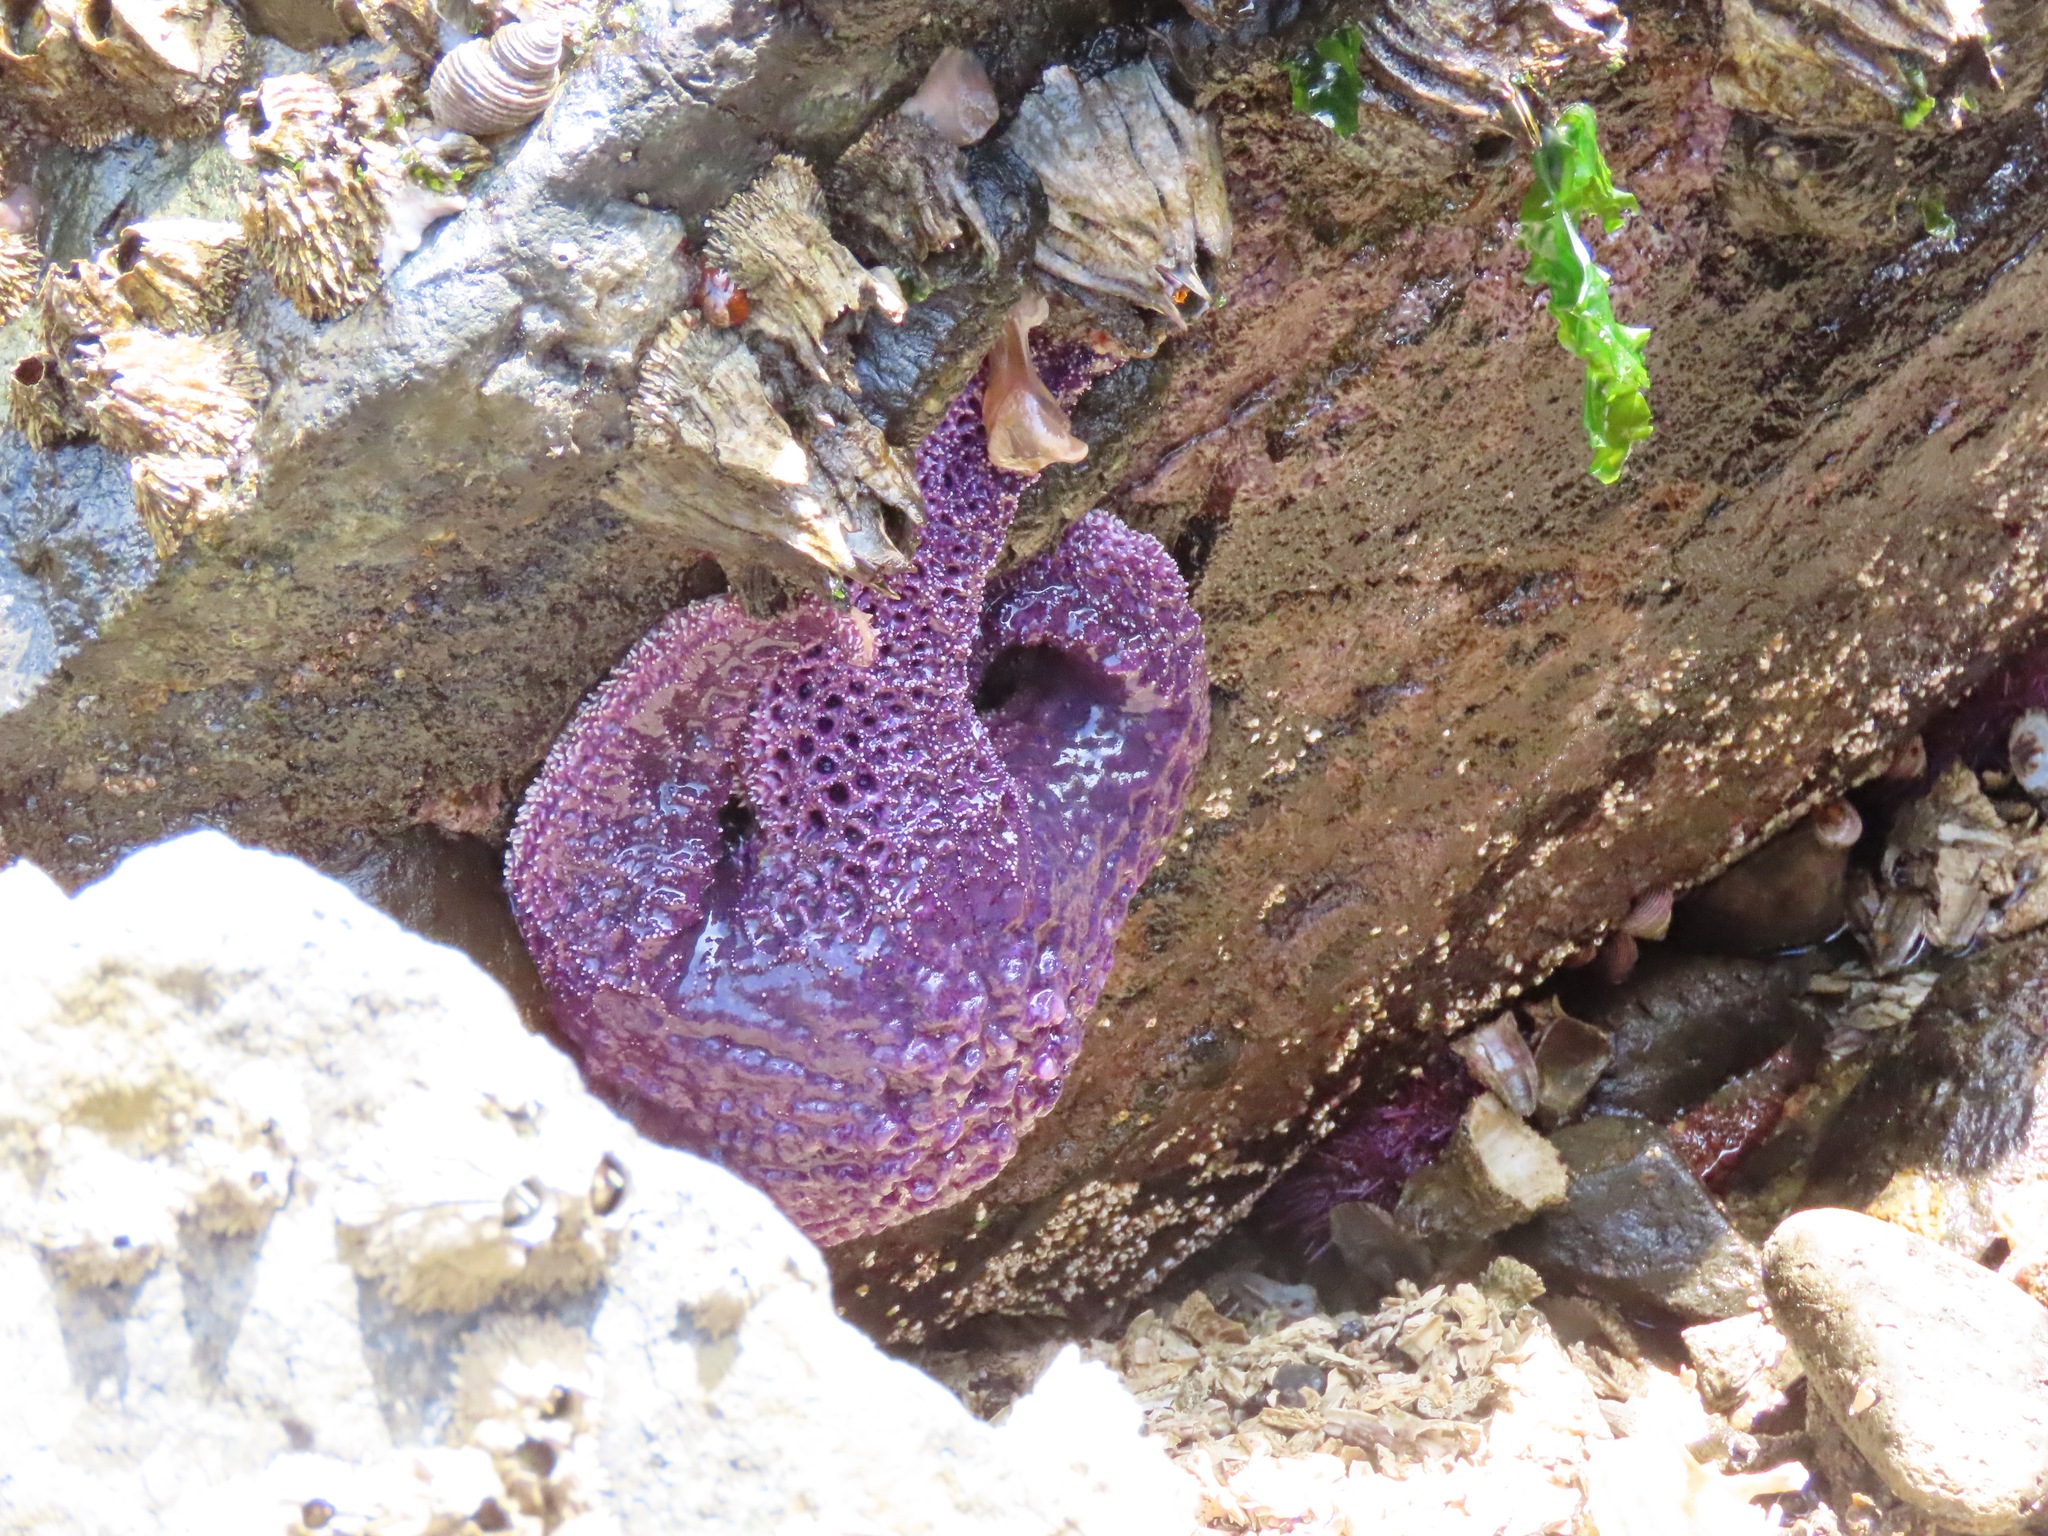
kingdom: Animalia
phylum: Echinodermata
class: Asteroidea
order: Forcipulatida
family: Asteriidae
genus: Pisaster
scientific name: Pisaster ochraceus
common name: Ochre stars
